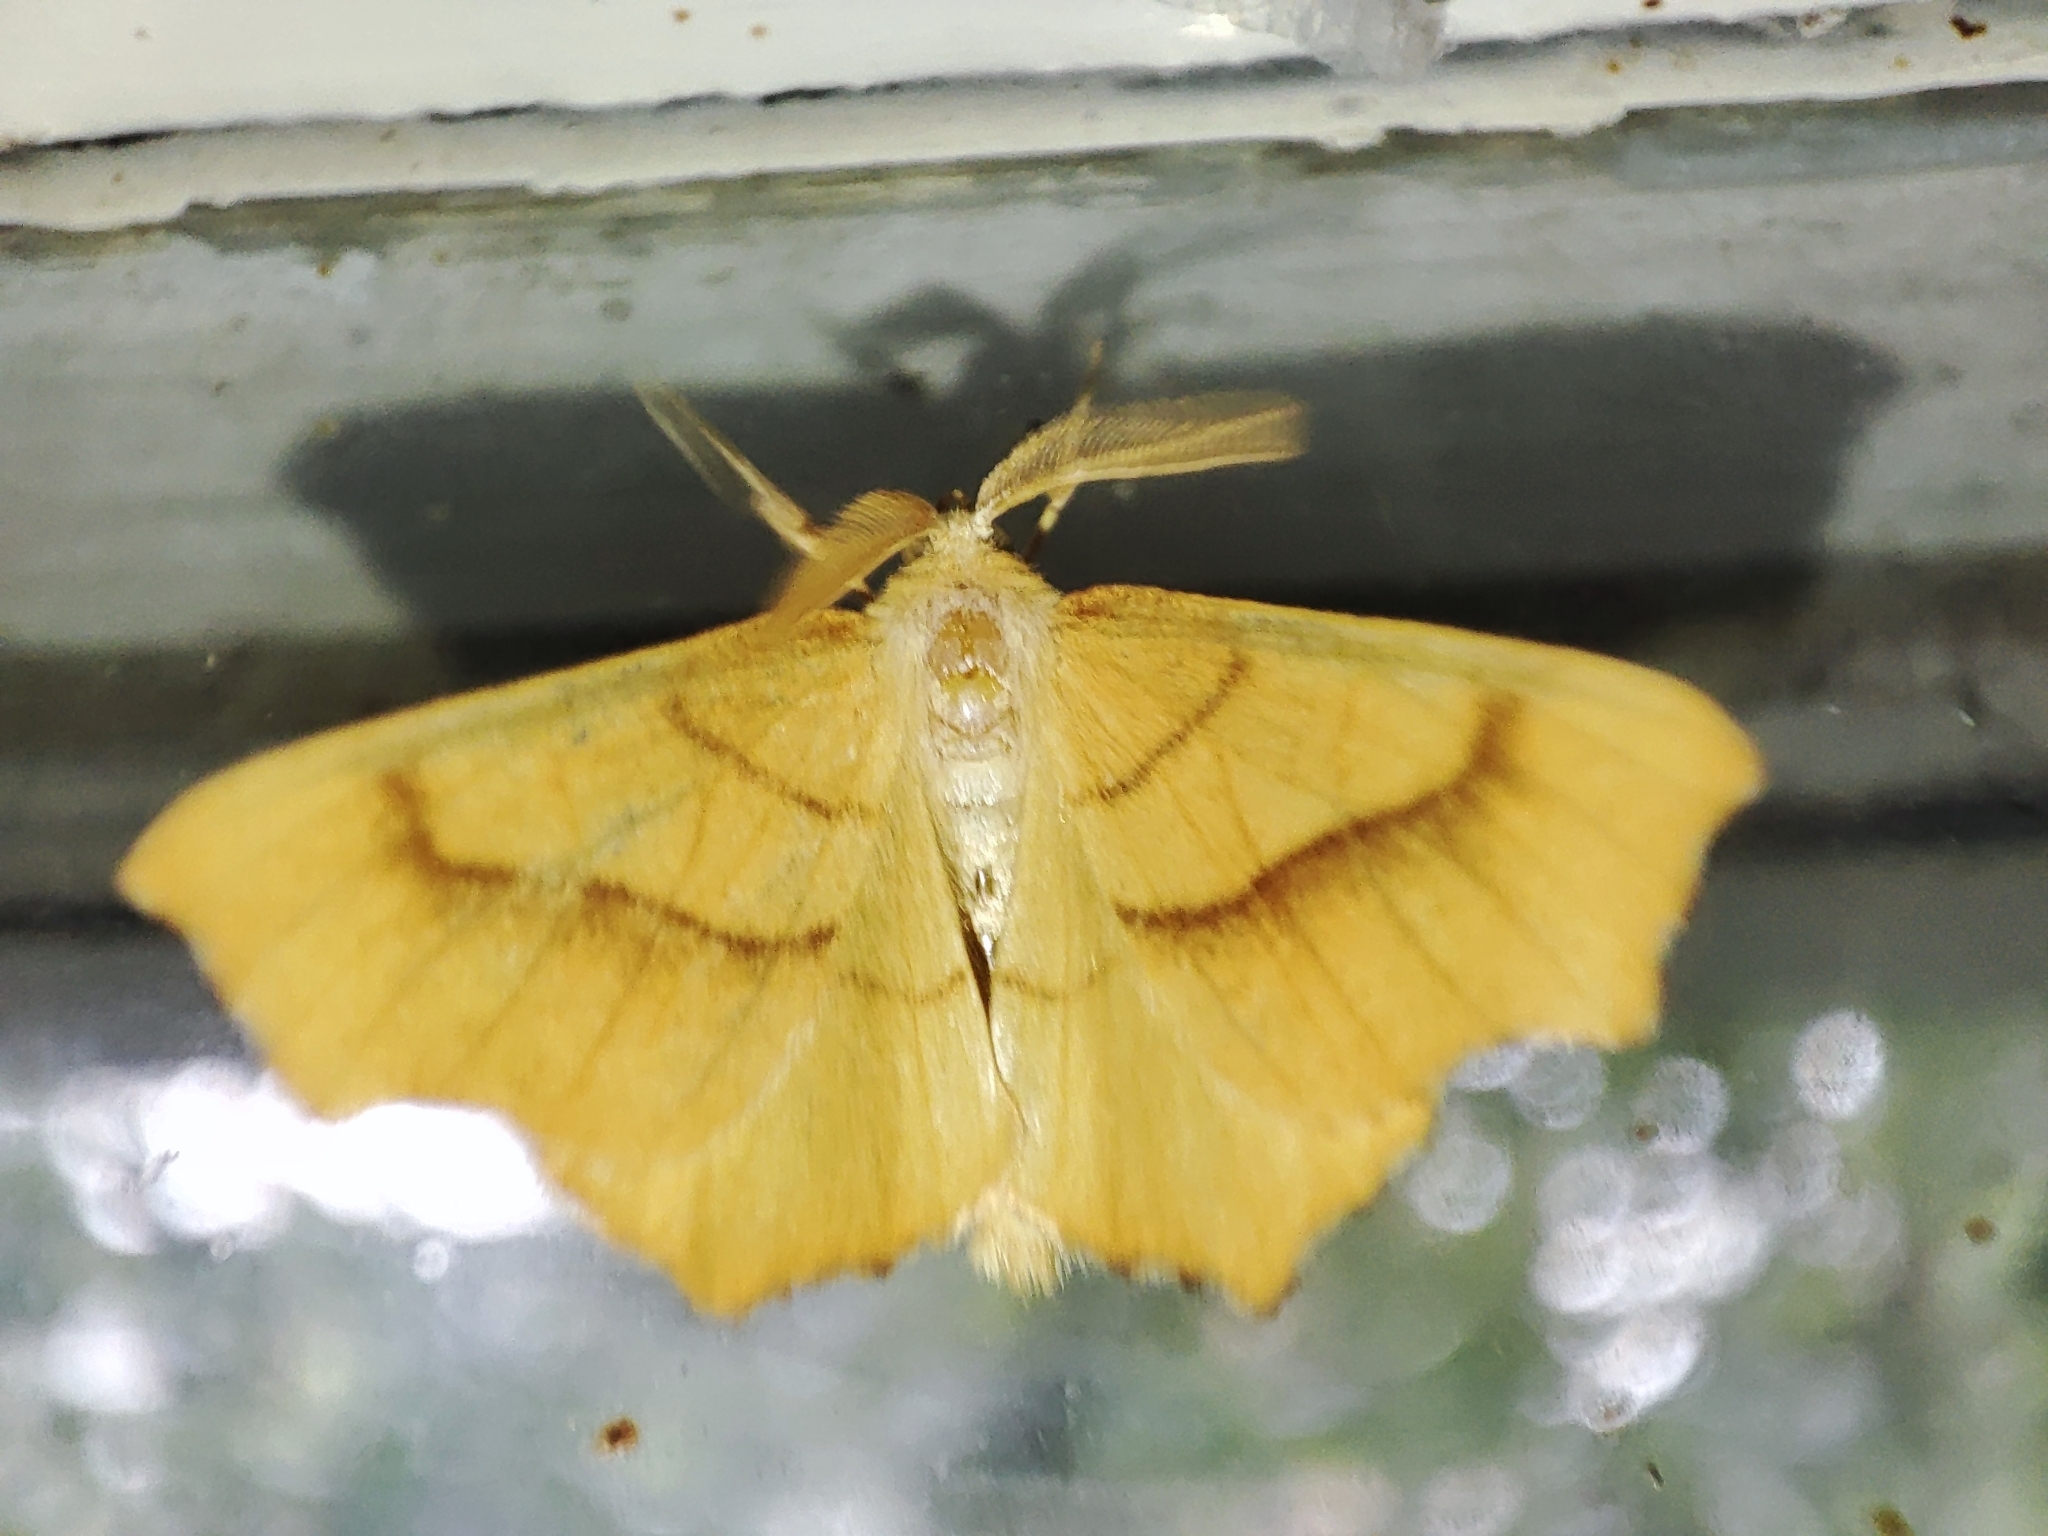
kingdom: Animalia
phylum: Arthropoda
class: Insecta
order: Lepidoptera
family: Geometridae
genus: Ennomos
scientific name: Ennomos quercinaria
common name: August thorn
